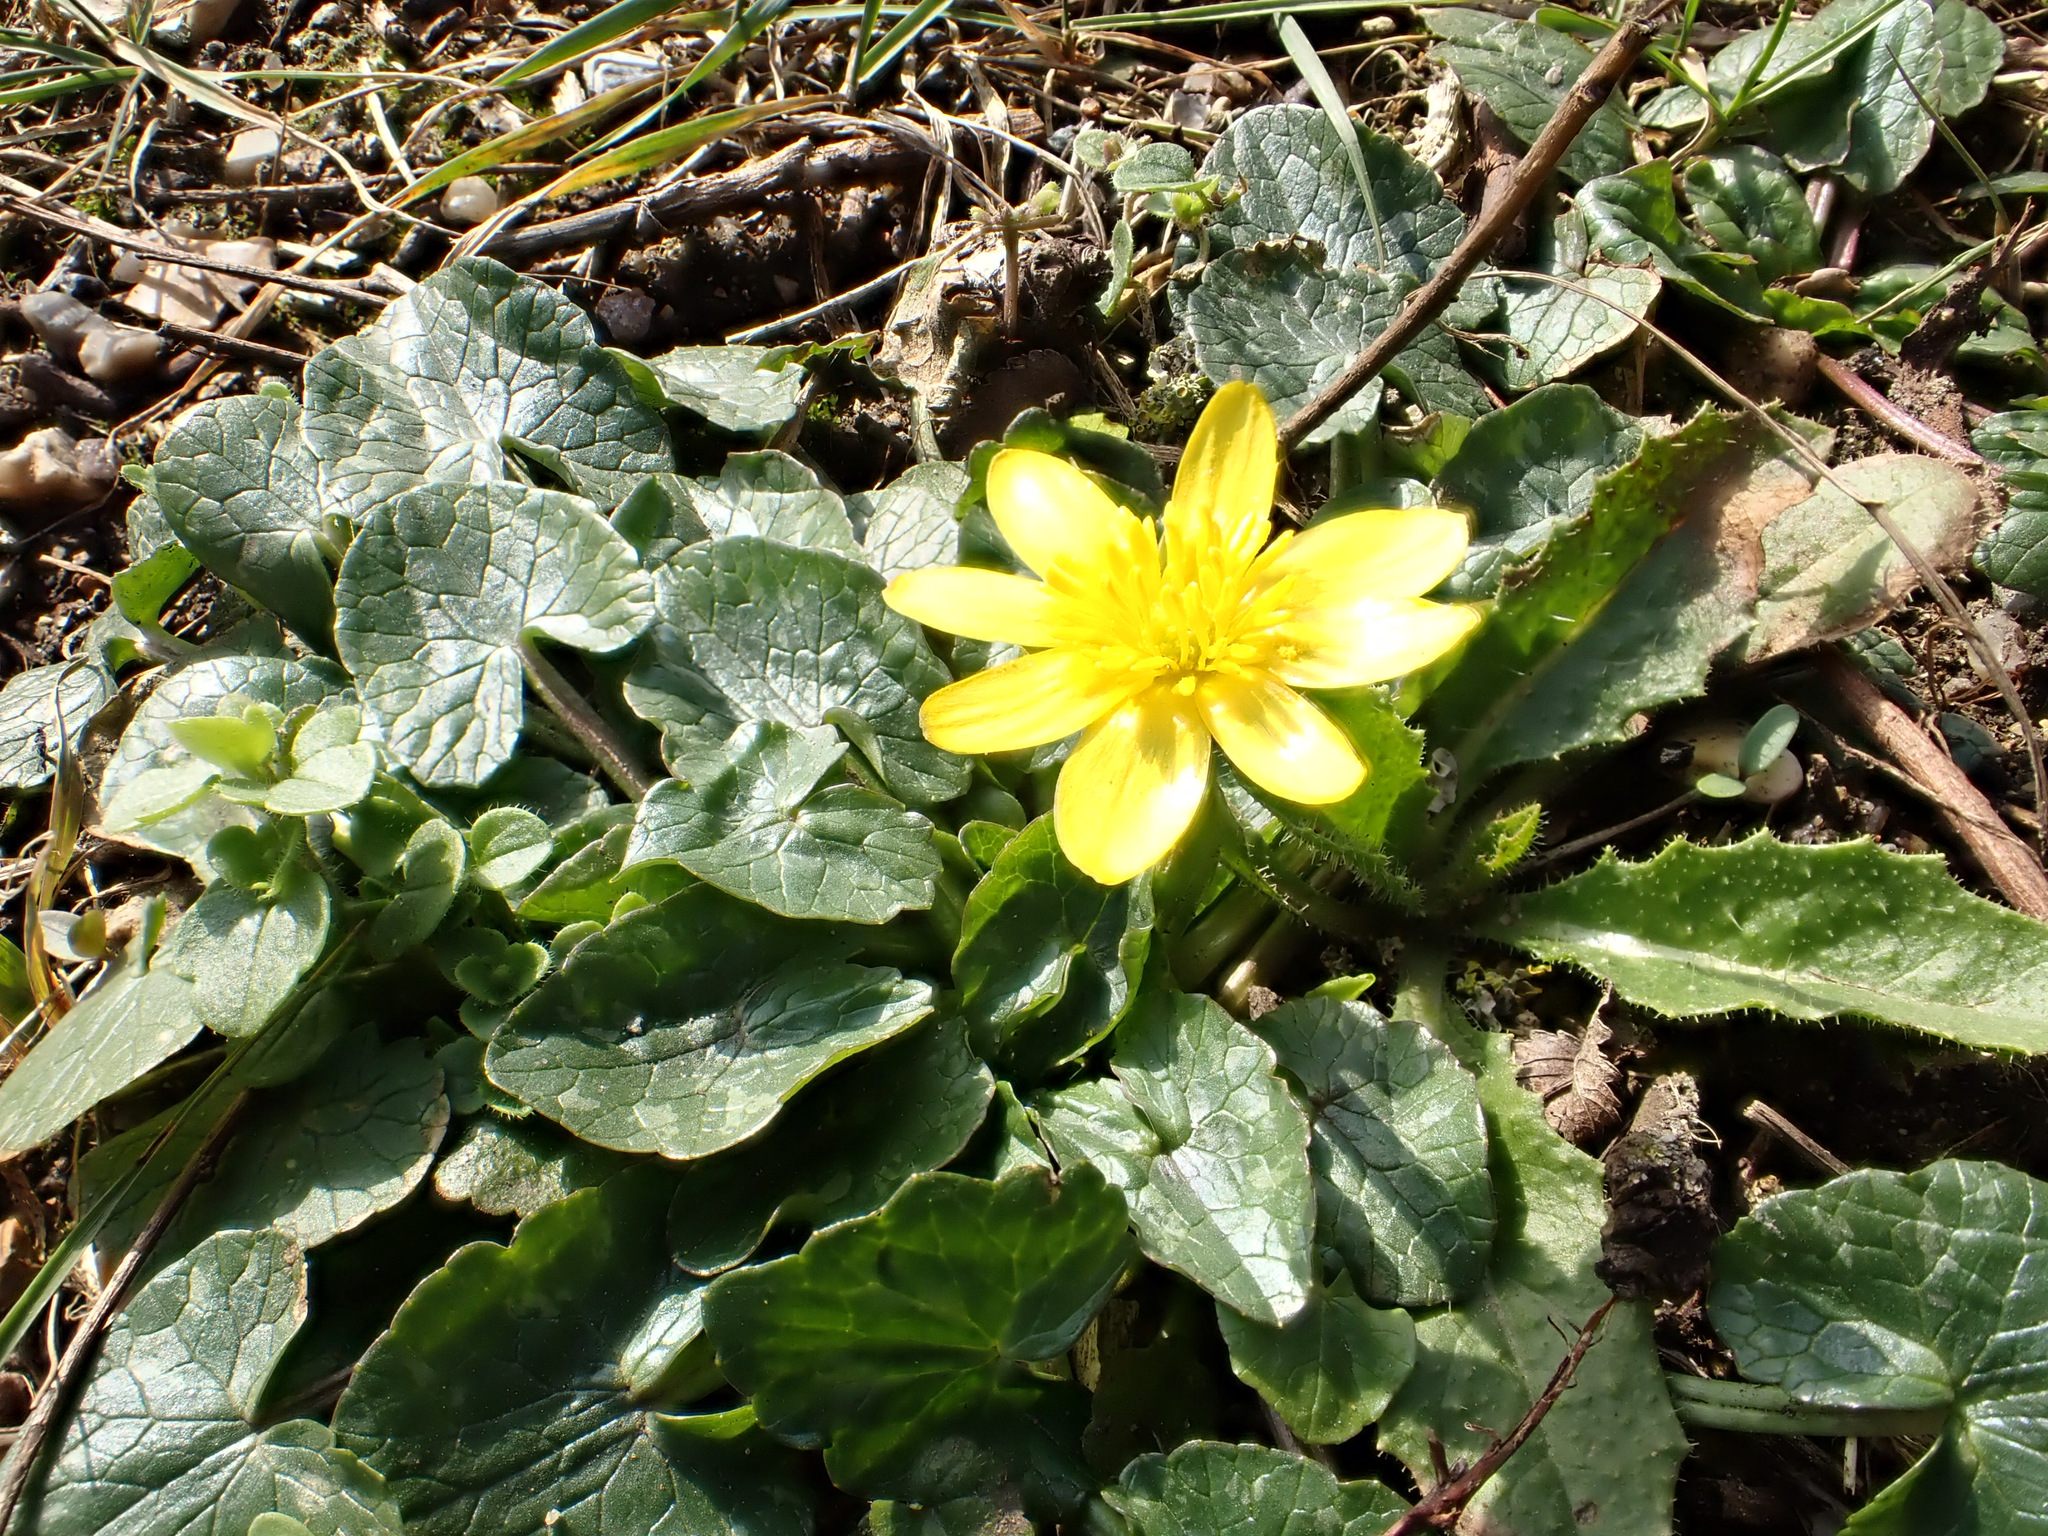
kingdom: Plantae
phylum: Tracheophyta
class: Magnoliopsida
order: Ranunculales
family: Ranunculaceae
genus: Ficaria
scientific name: Ficaria verna
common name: Lesser celandine
